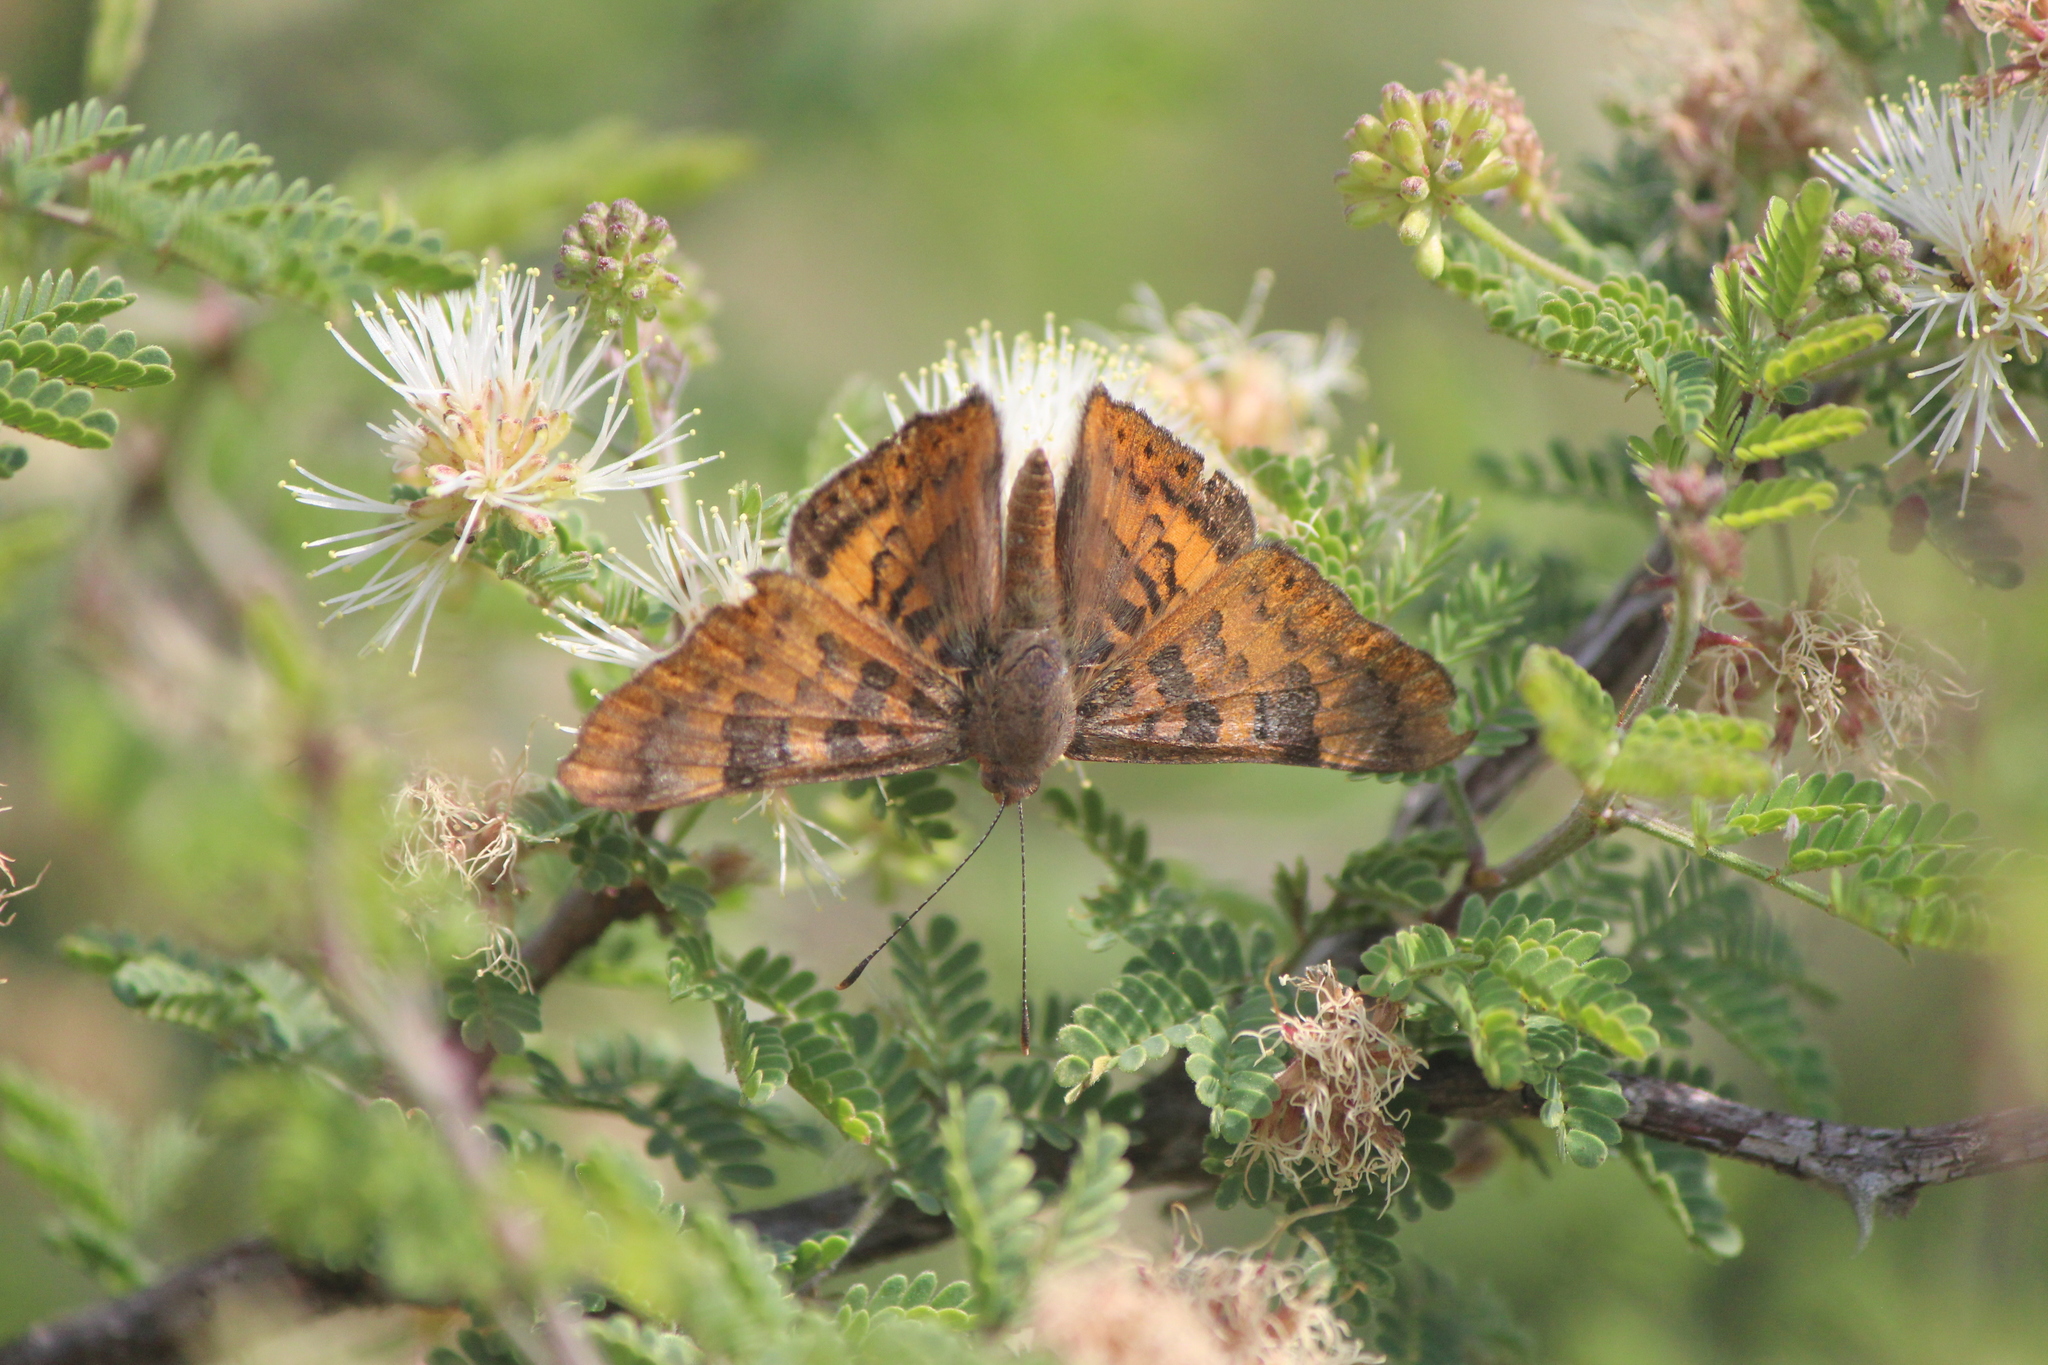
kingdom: Animalia
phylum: Arthropoda
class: Insecta
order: Lepidoptera
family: Riodinidae
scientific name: Riodinidae
